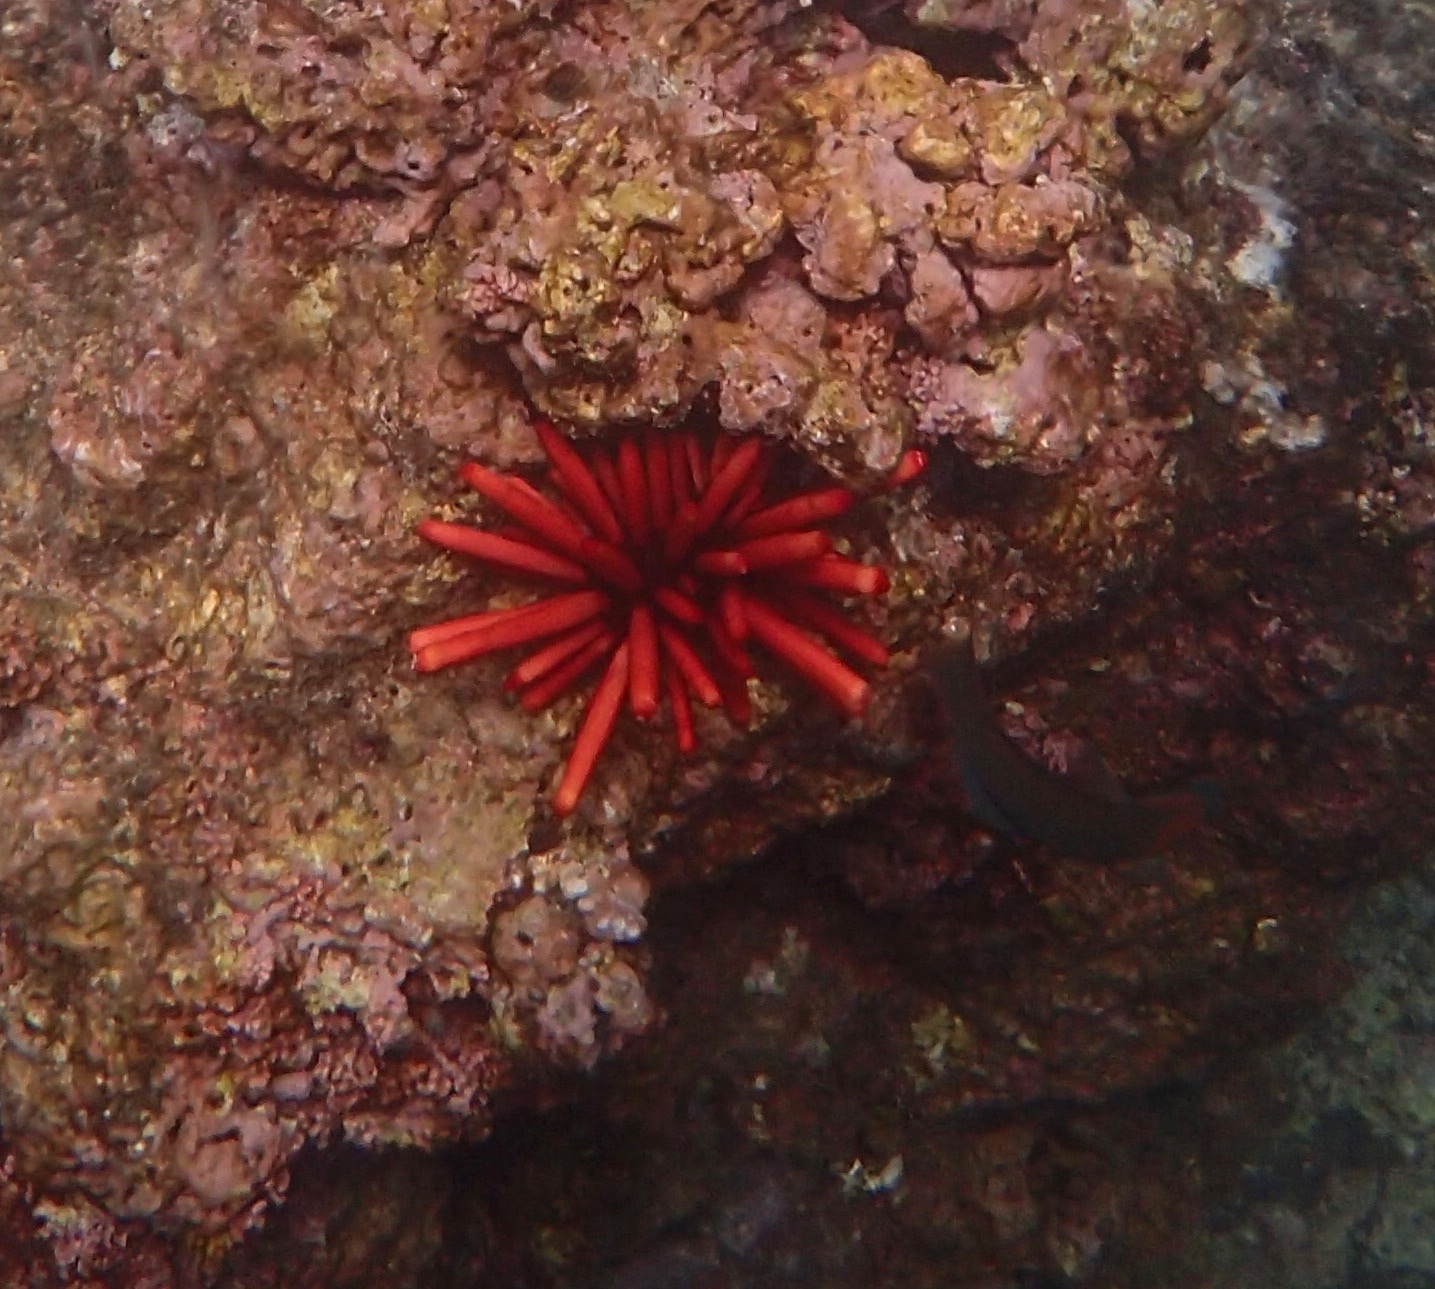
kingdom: Animalia
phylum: Echinodermata
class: Echinoidea
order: Camarodonta
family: Echinometridae
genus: Heterocentrotus
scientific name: Heterocentrotus mamillatus
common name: Slate pencil urchin
